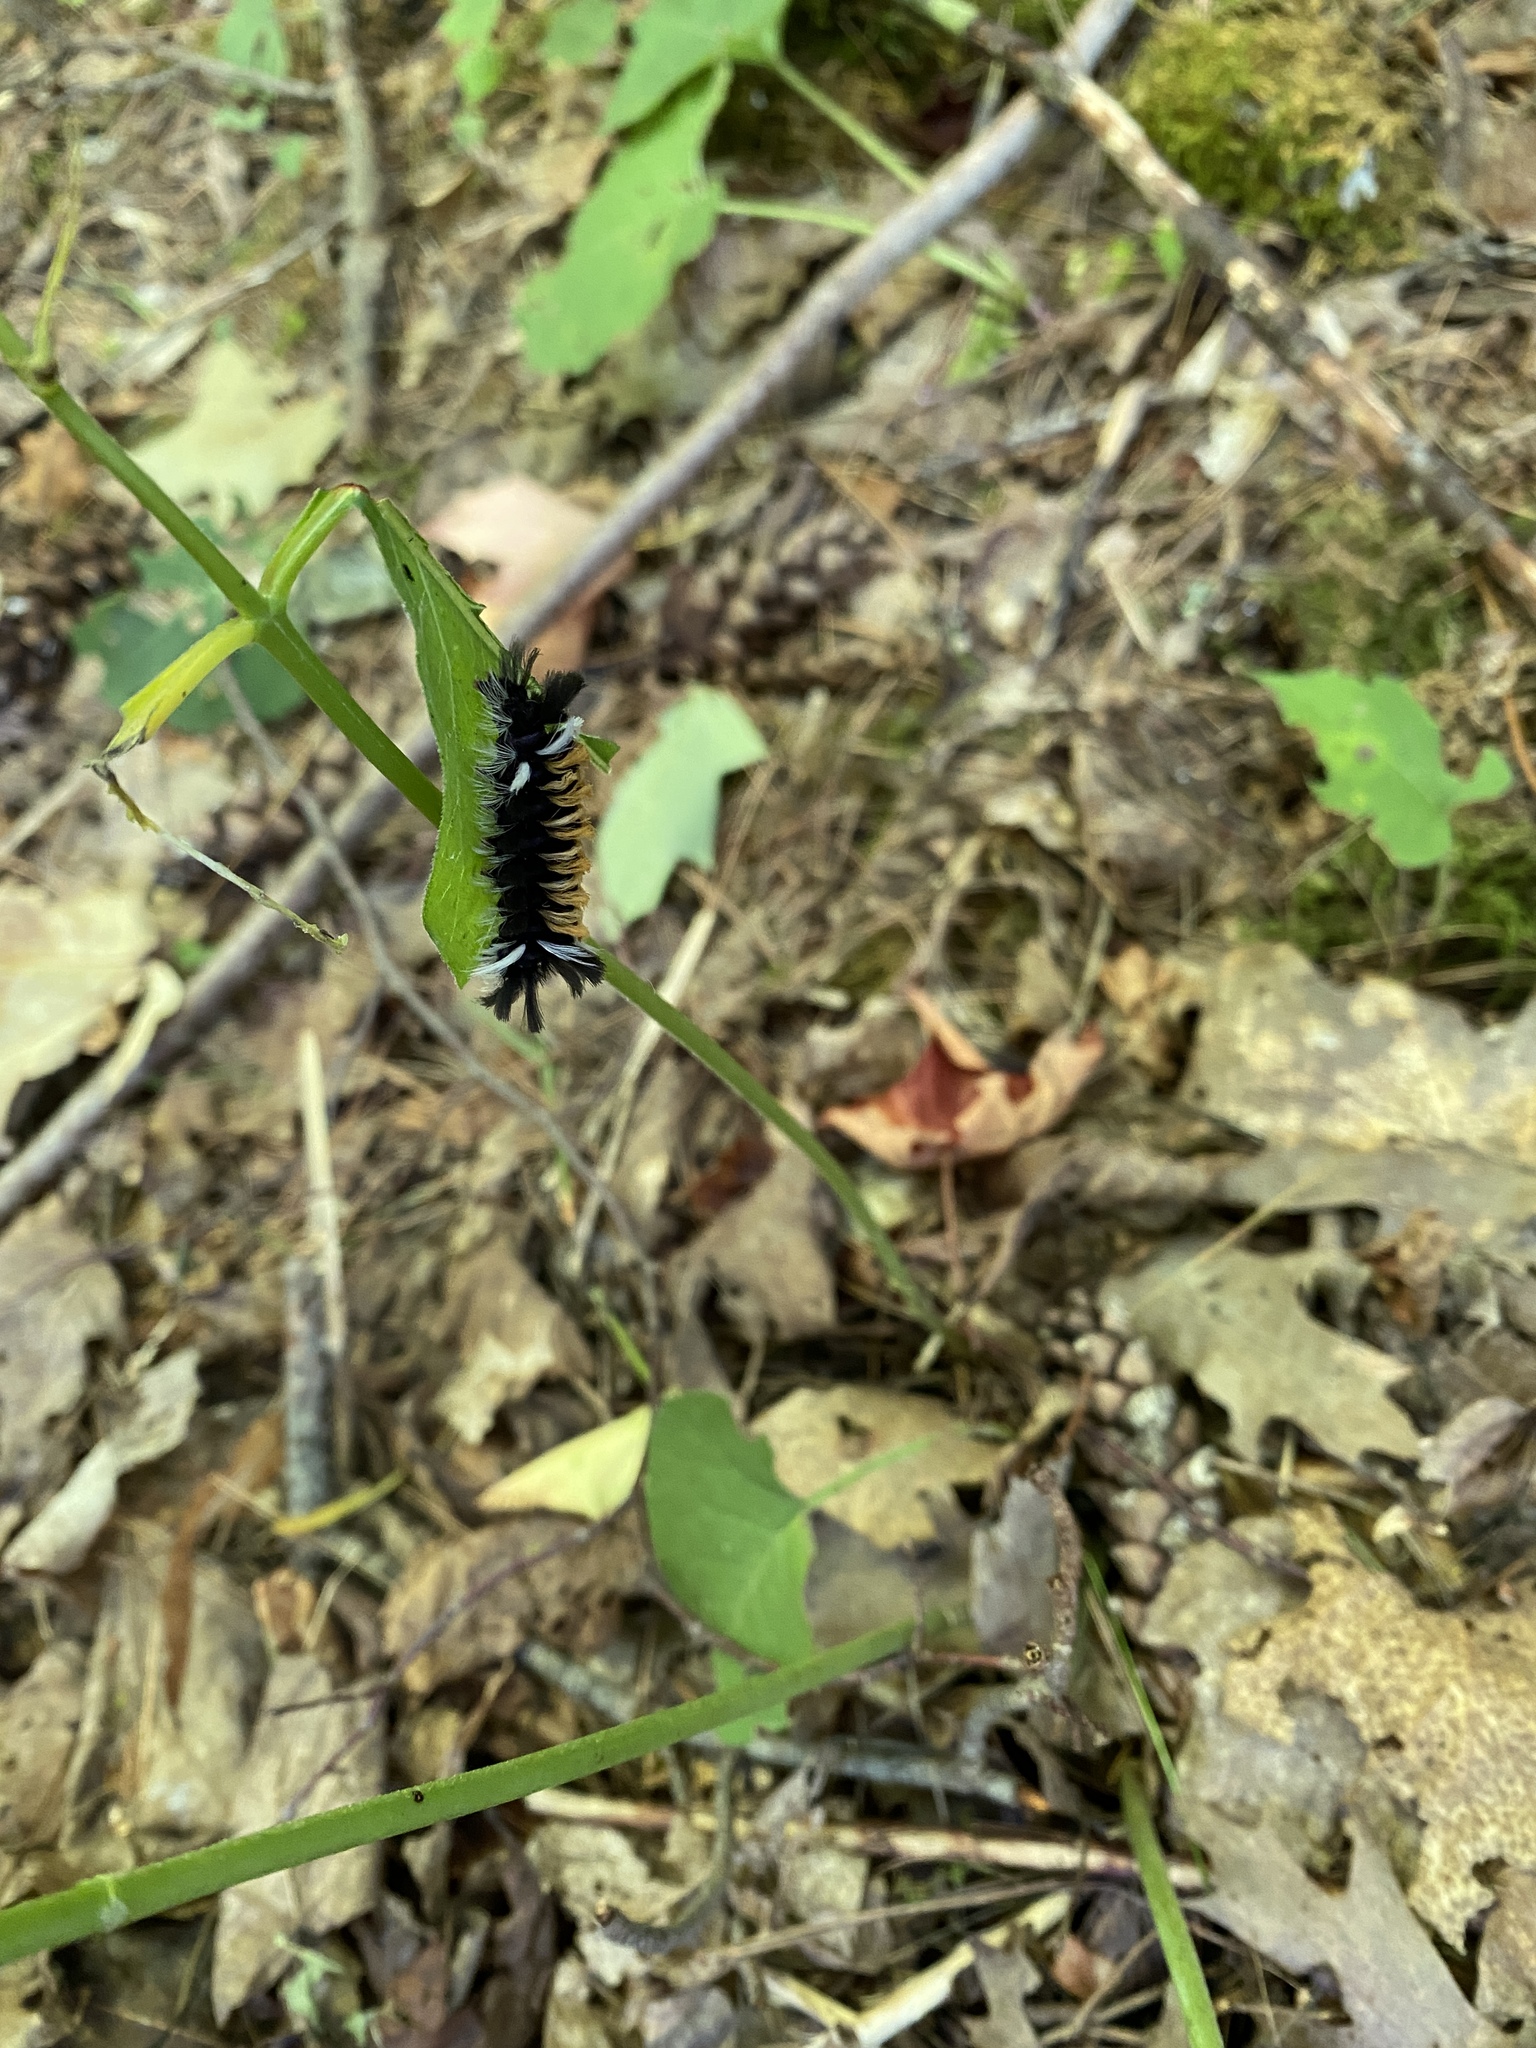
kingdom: Animalia
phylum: Arthropoda
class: Insecta
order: Lepidoptera
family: Erebidae
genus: Euchaetes
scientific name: Euchaetes egle
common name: Milkweed tussock moth
